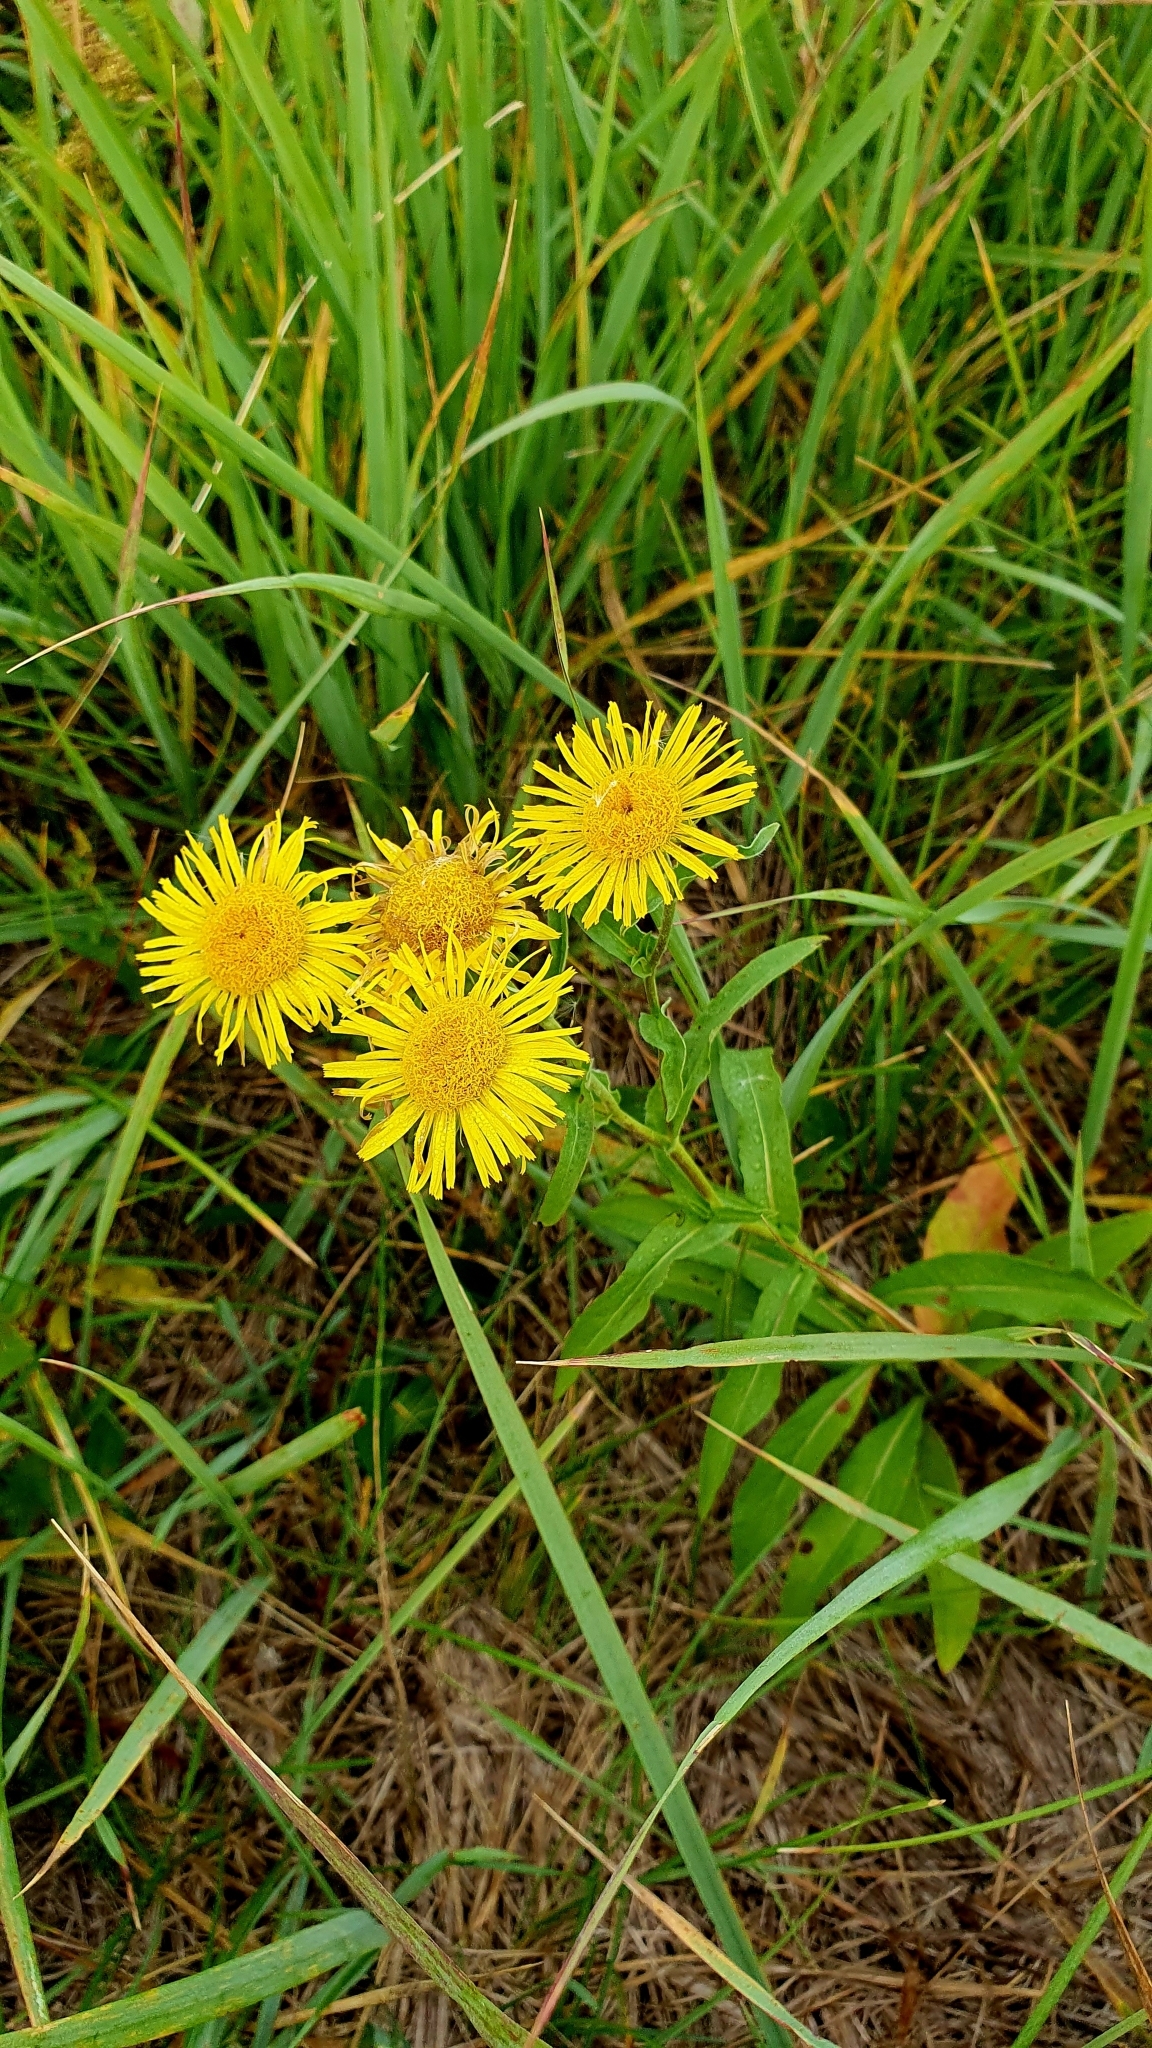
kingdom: Plantae
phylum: Tracheophyta
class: Magnoliopsida
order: Asterales
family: Asteraceae
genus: Pentanema
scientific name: Pentanema britannicum
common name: British elecampane
